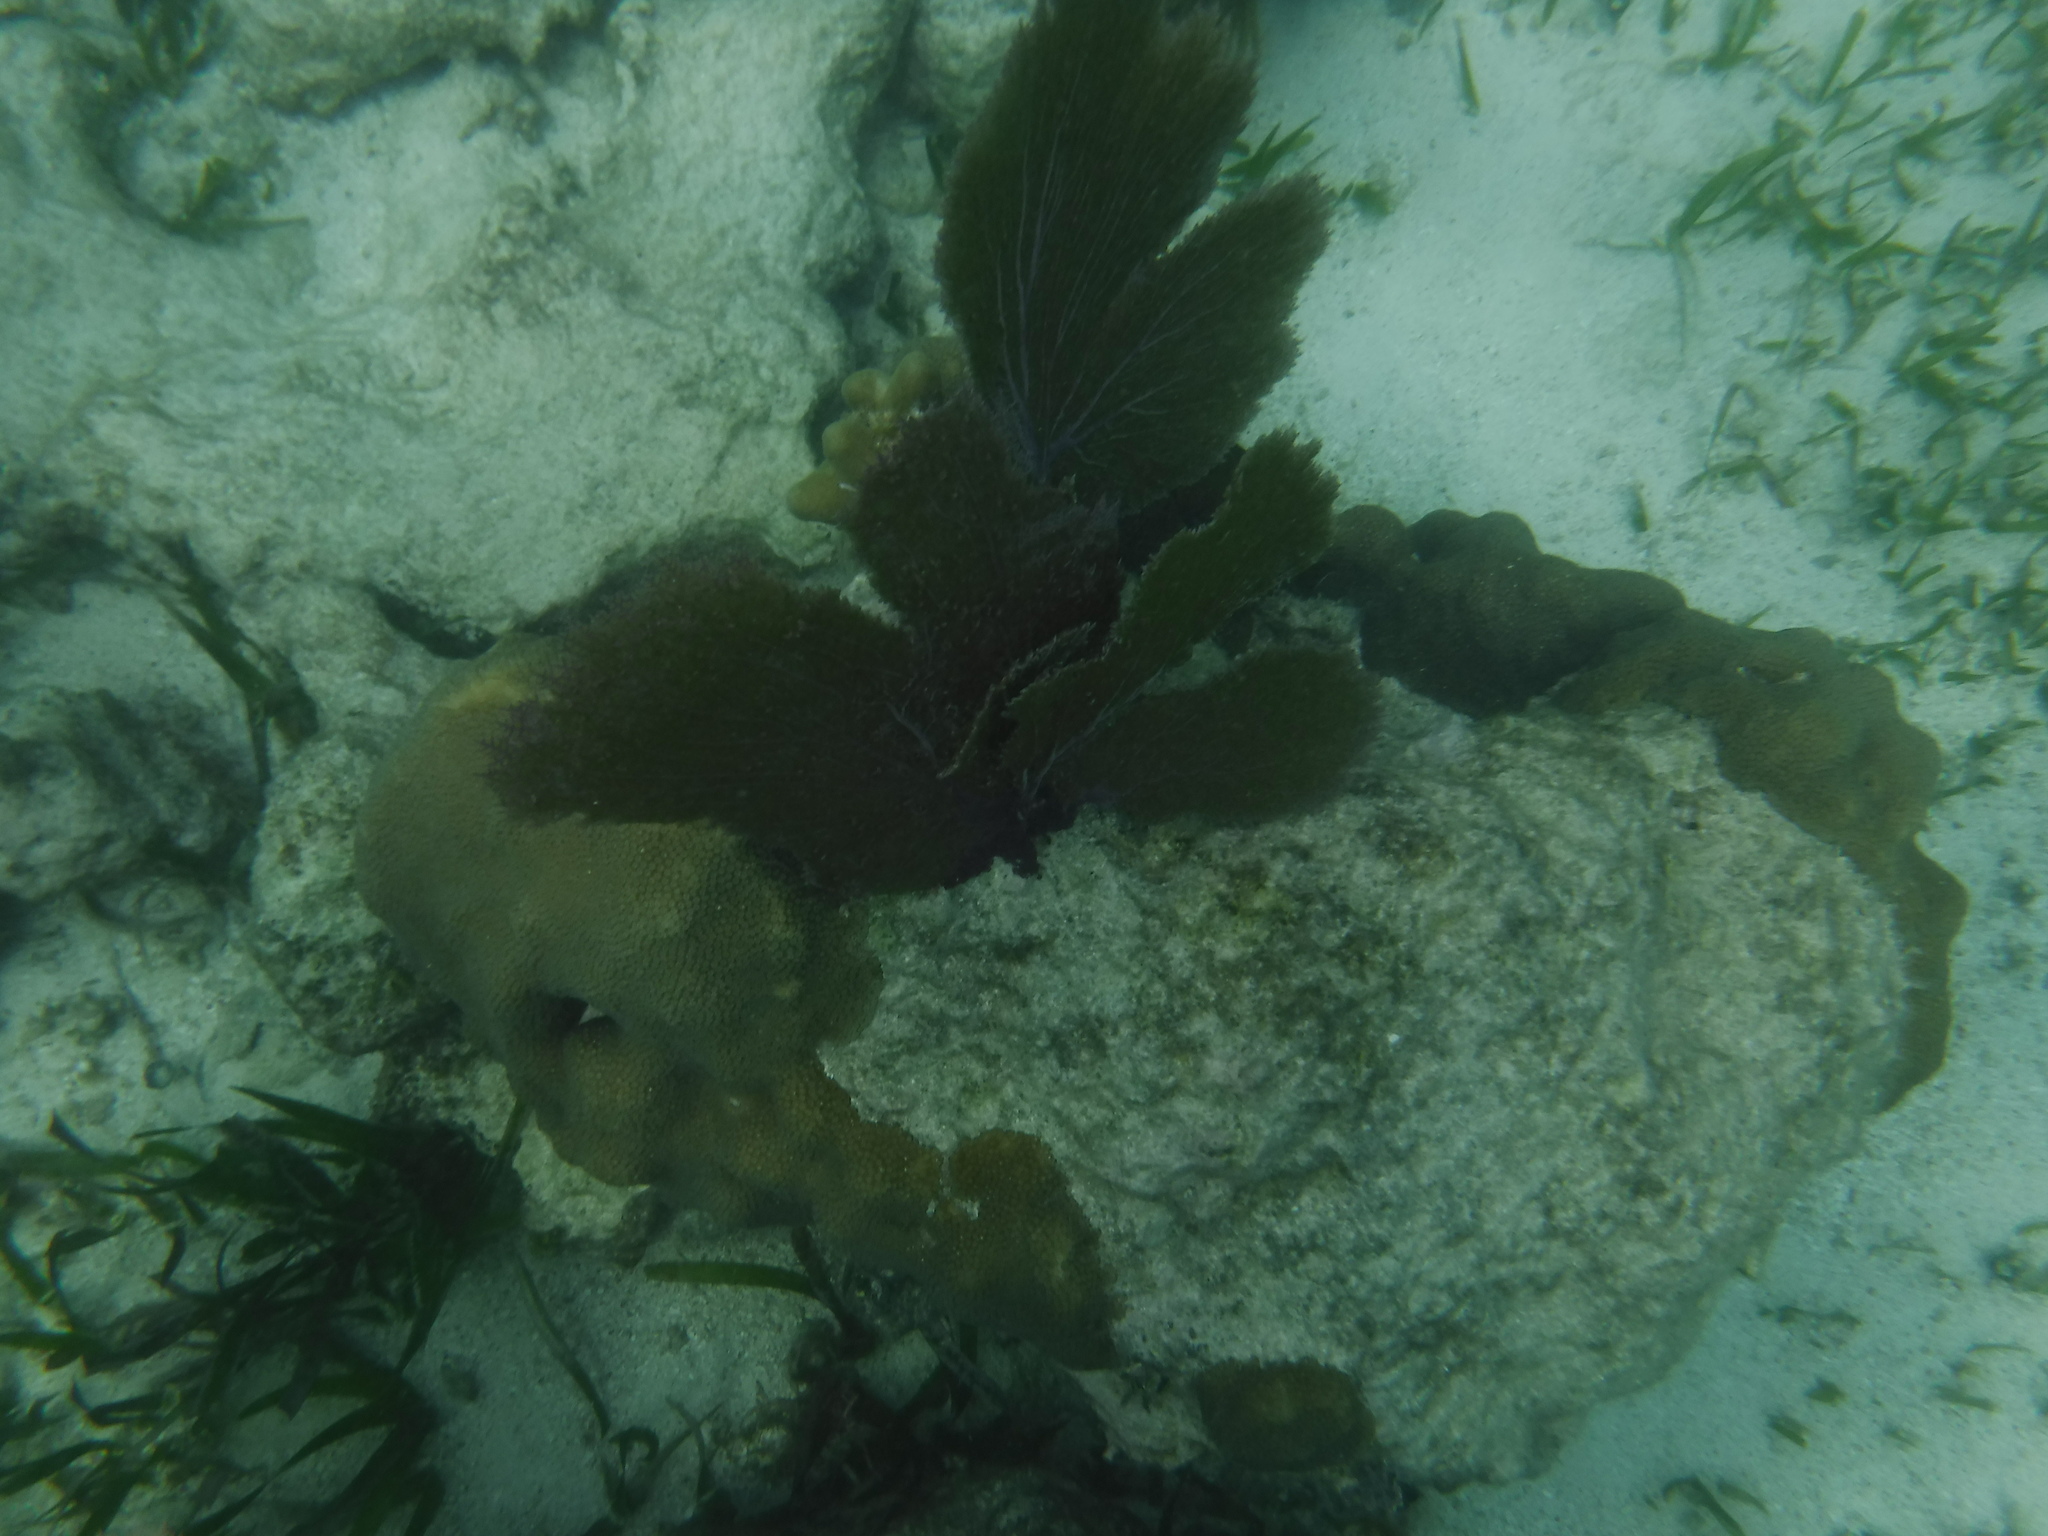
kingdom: Animalia
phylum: Cnidaria
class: Anthozoa
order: Malacalcyonacea
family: Gorgoniidae
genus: Gorgonia
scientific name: Gorgonia ventalina
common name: Common sea fan
